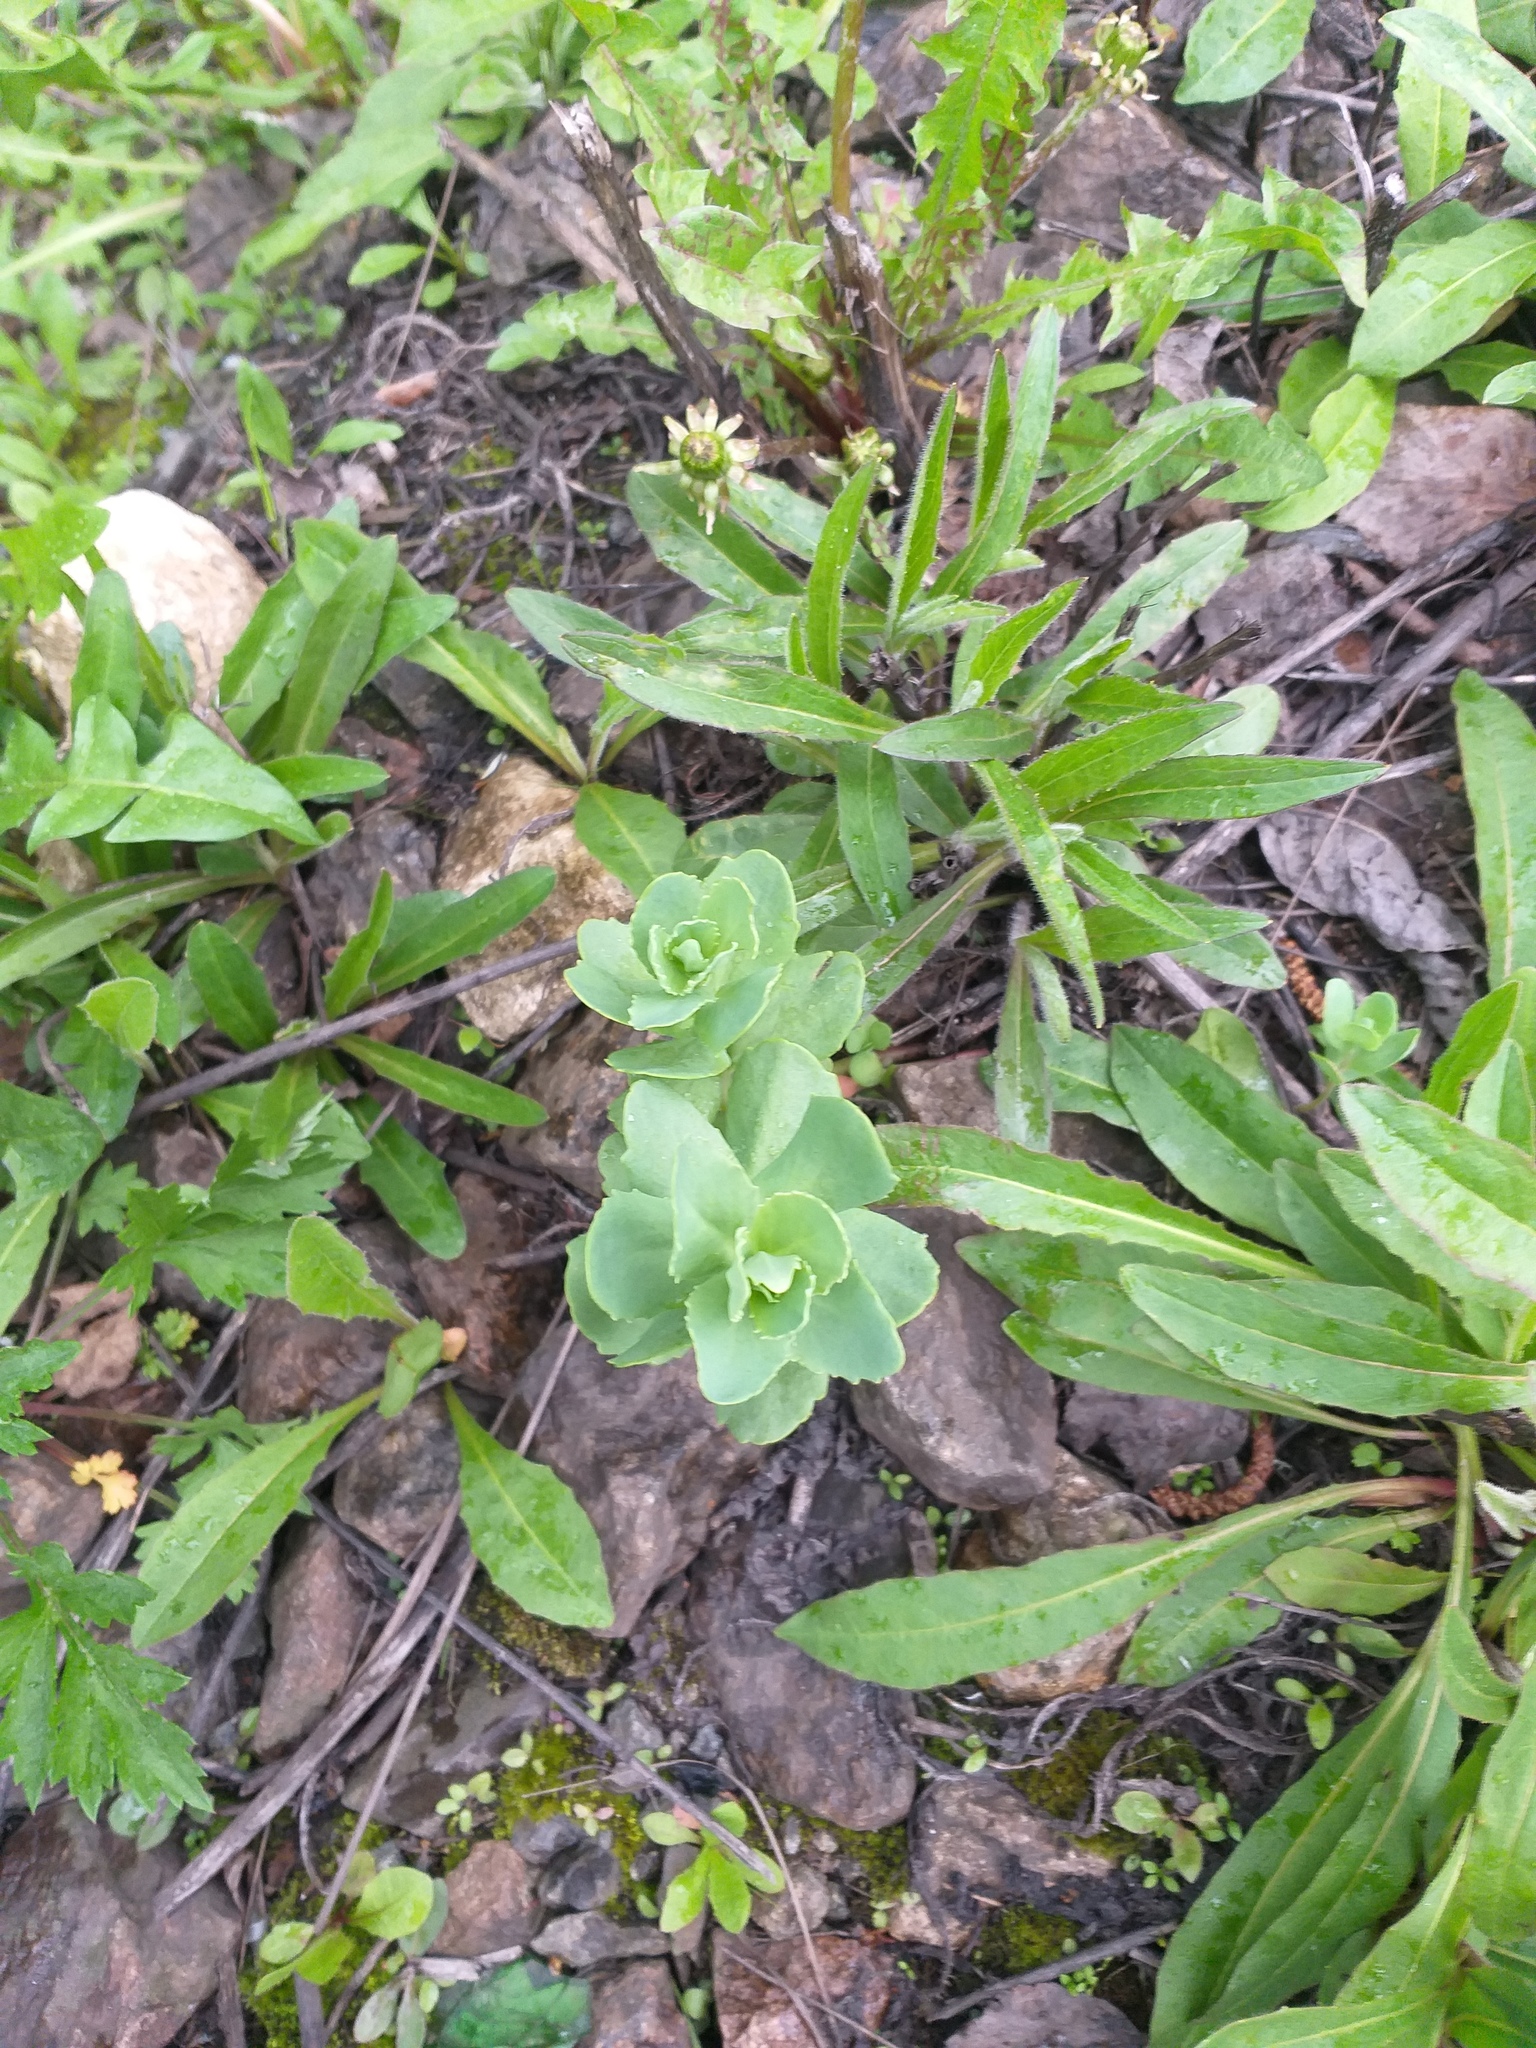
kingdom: Plantae
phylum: Tracheophyta
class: Magnoliopsida
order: Saxifragales
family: Crassulaceae
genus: Hylotelephium
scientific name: Hylotelephium telephium
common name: Live-forever
